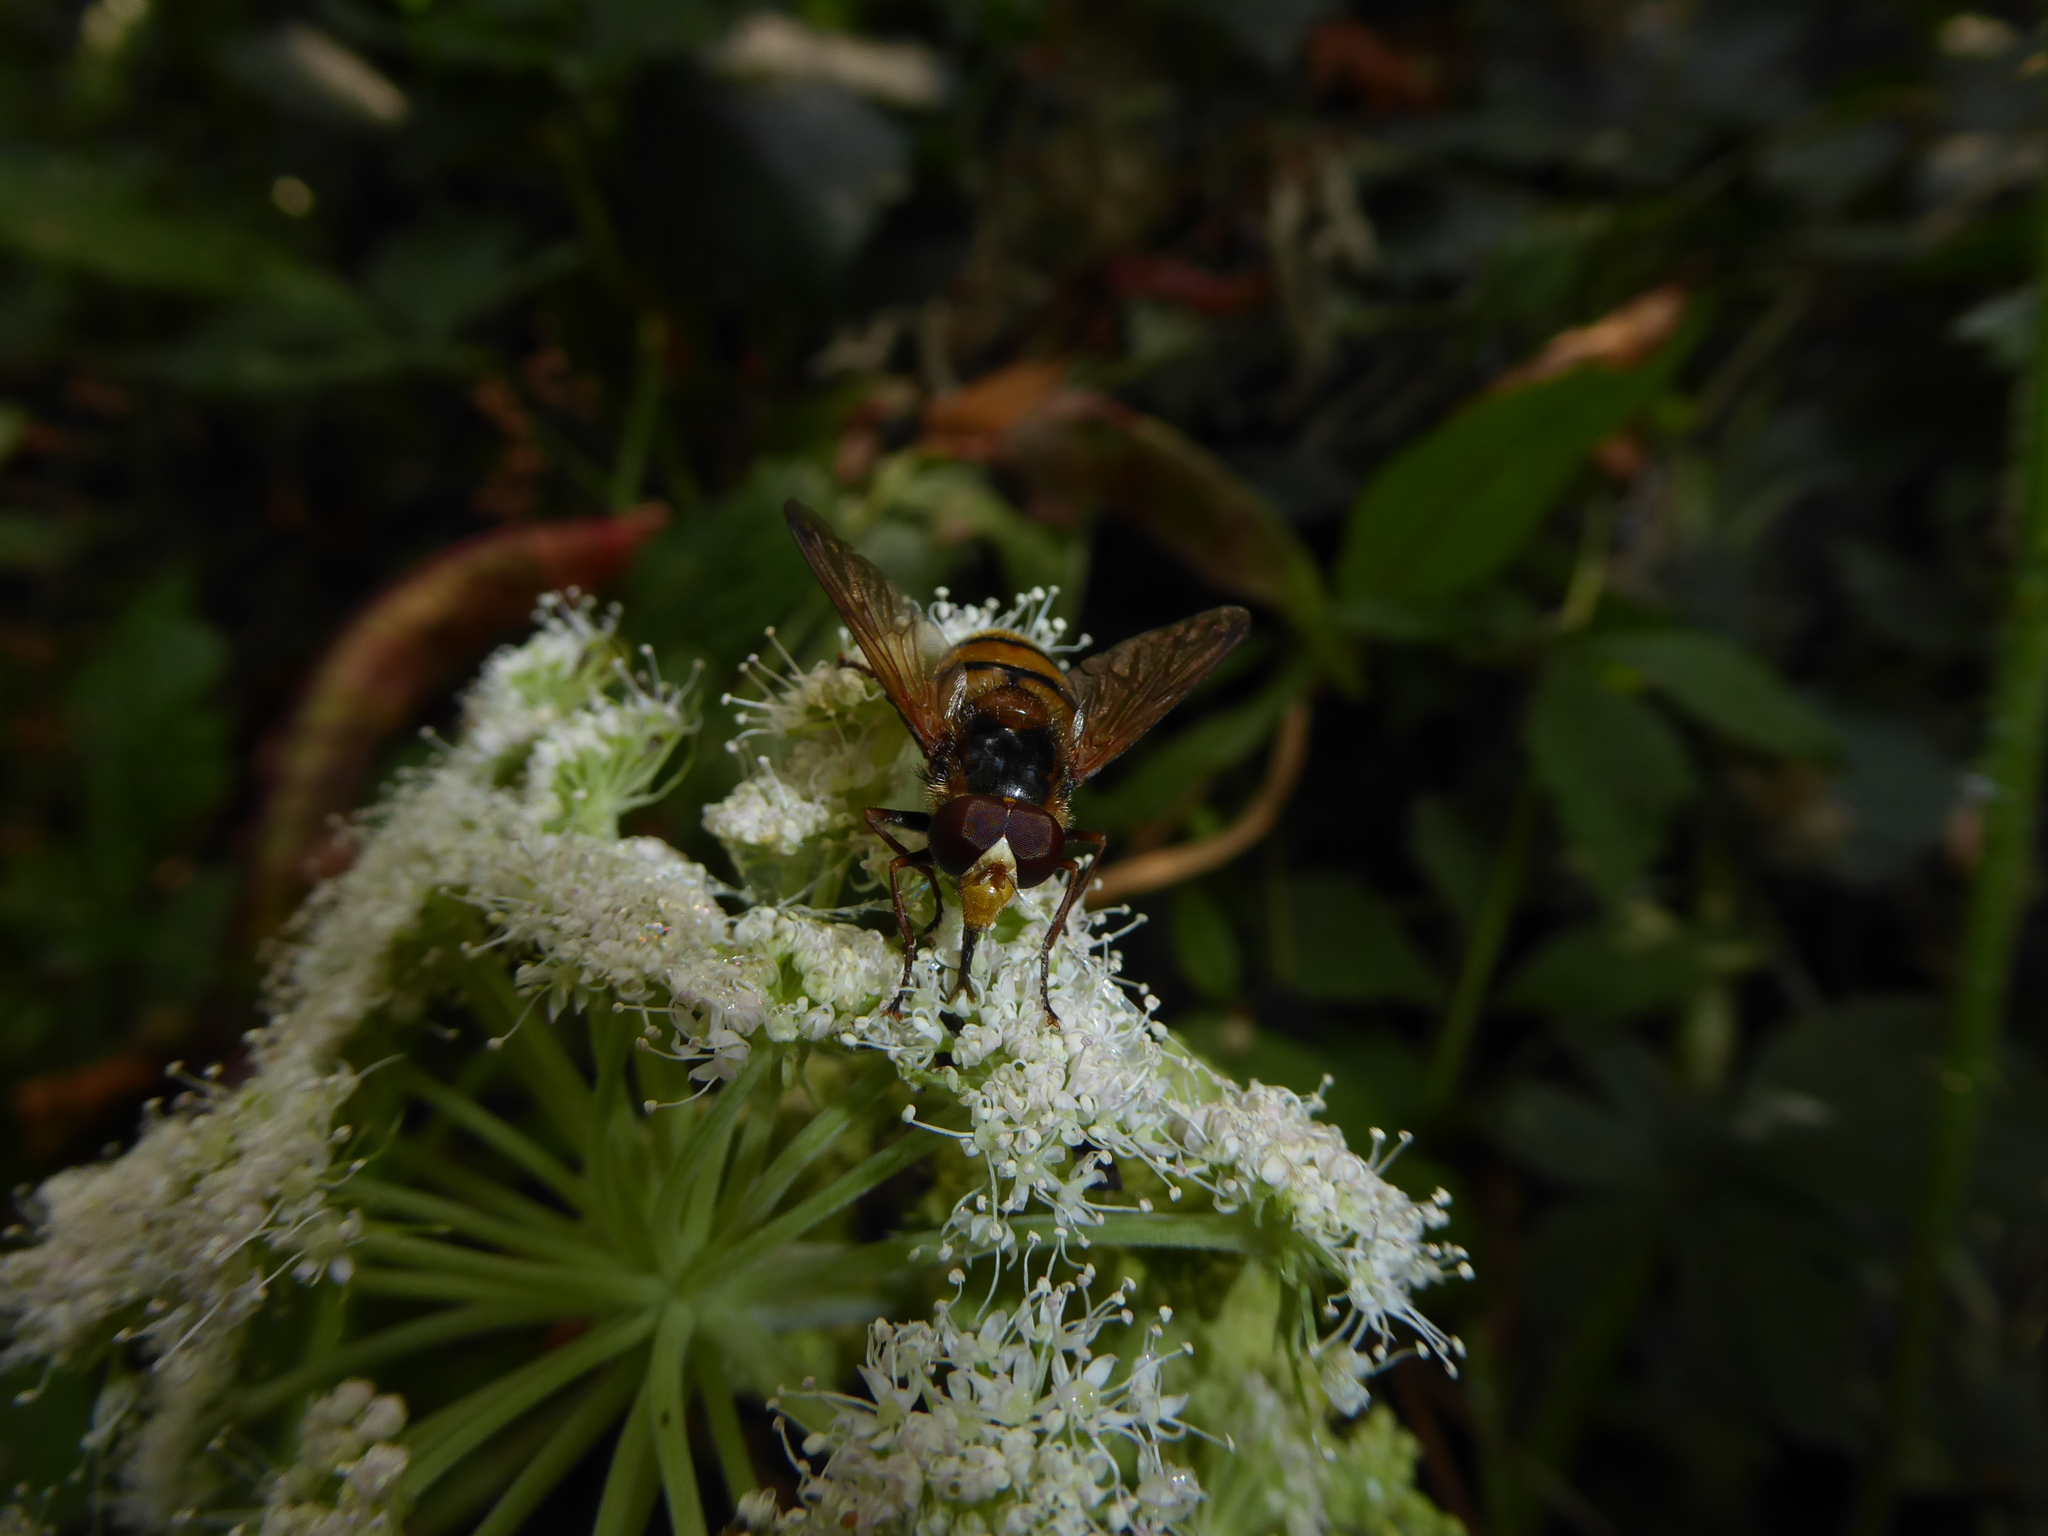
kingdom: Animalia
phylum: Arthropoda
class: Insecta
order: Diptera
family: Syrphidae
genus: Volucella
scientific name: Volucella inanis
